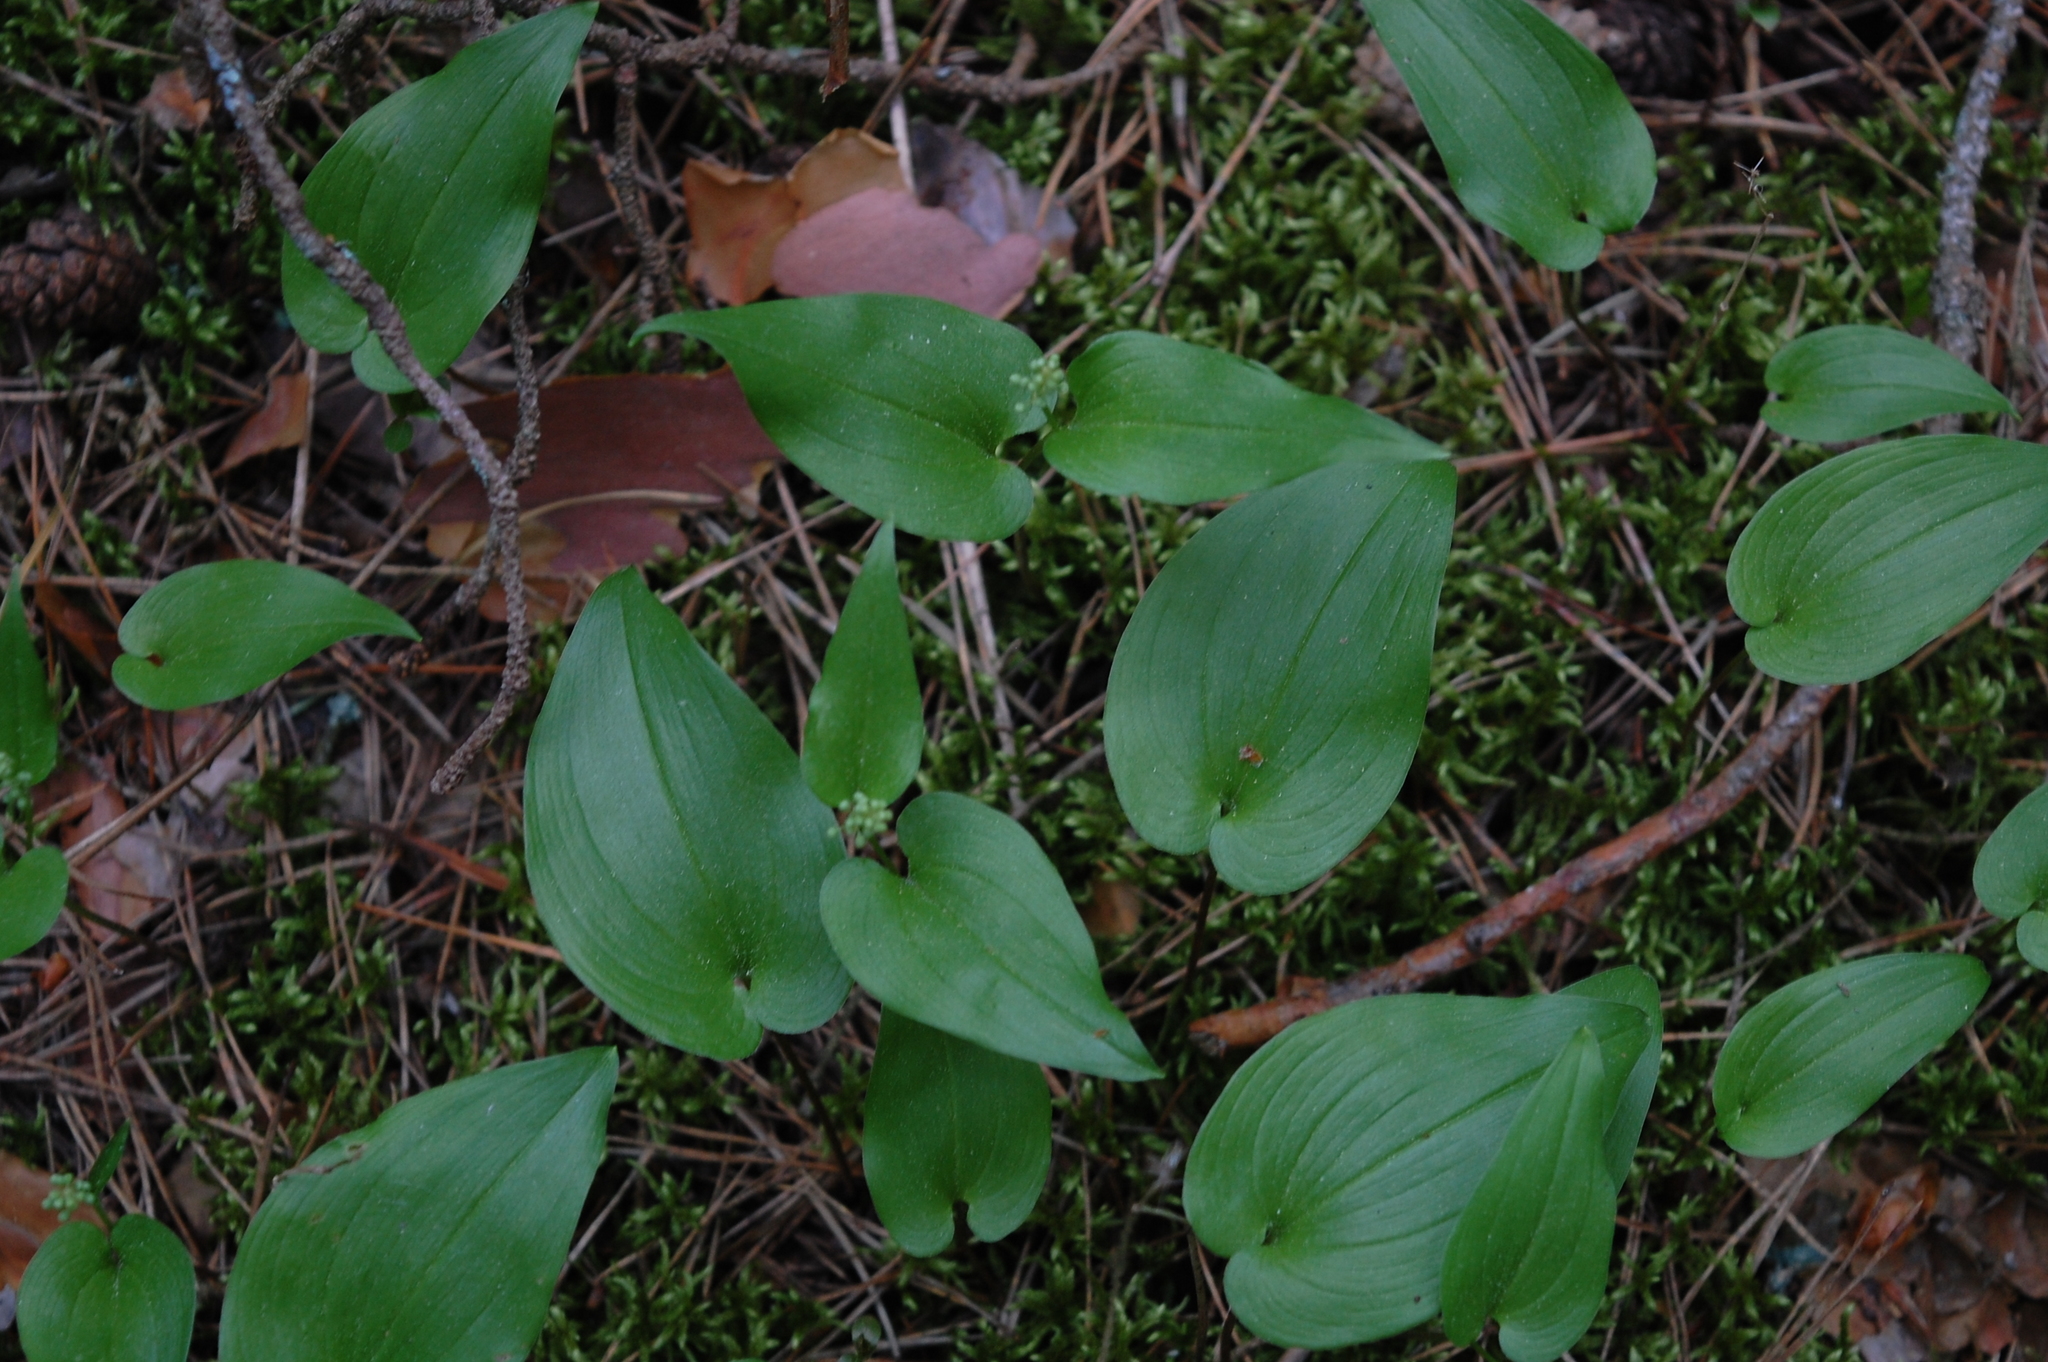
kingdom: Plantae
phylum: Tracheophyta
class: Liliopsida
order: Asparagales
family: Asparagaceae
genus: Maianthemum
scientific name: Maianthemum bifolium
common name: May lily
